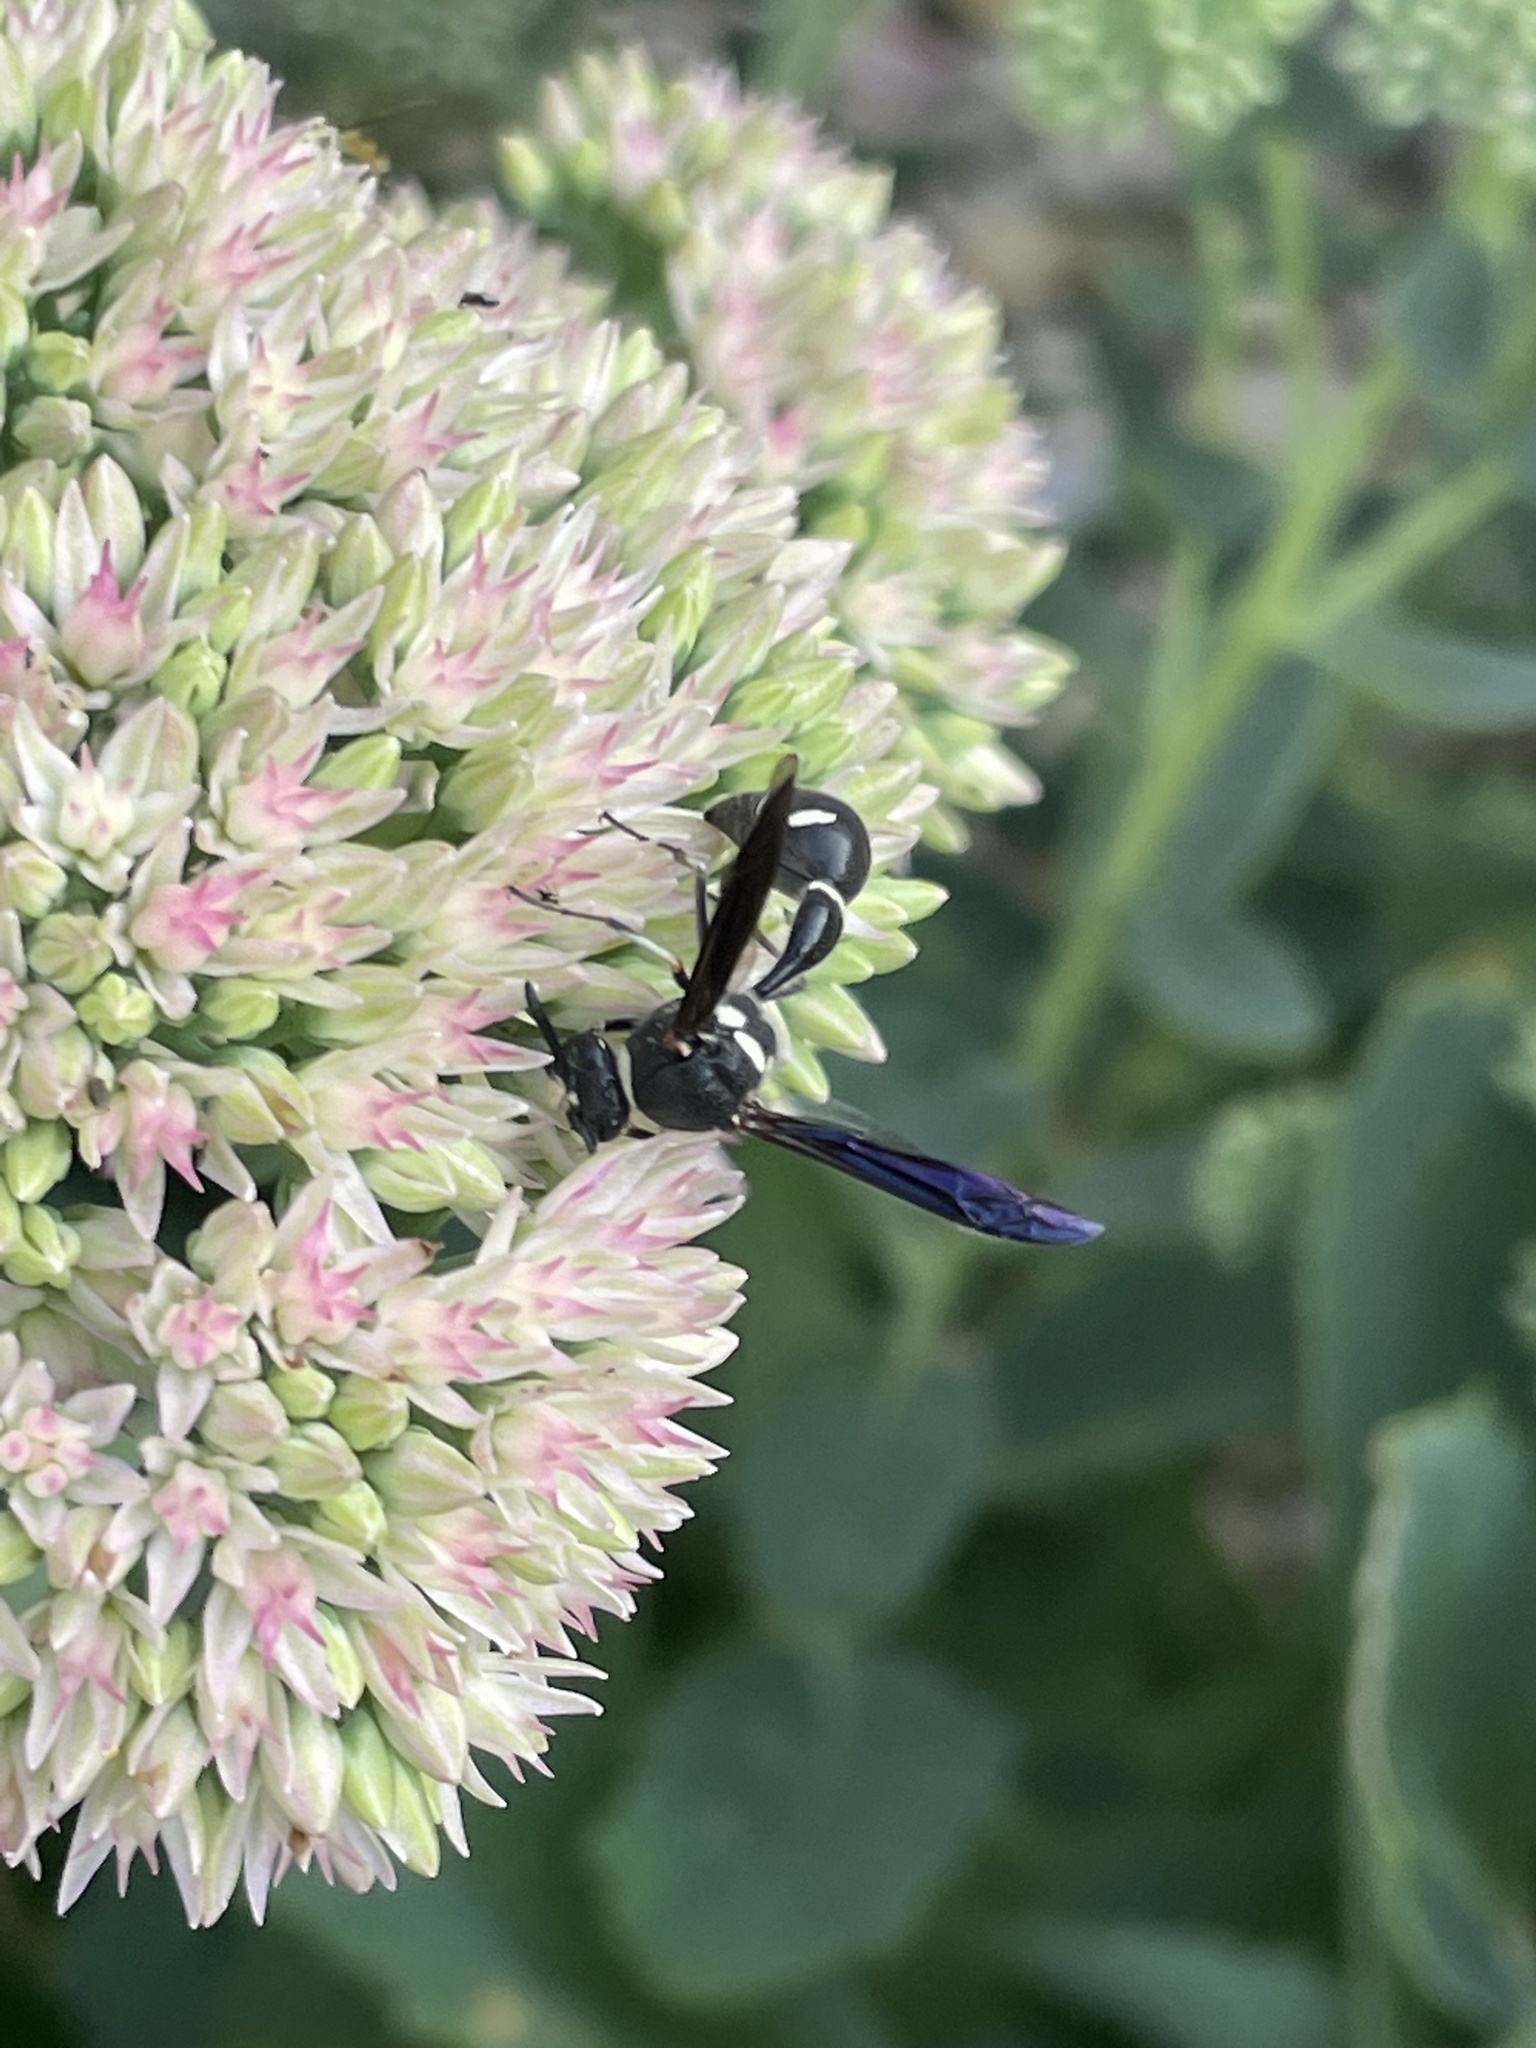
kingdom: Animalia
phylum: Arthropoda
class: Insecta
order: Hymenoptera
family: Vespidae
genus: Eumenes
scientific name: Eumenes fraternus
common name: Fraternal potter wasp
